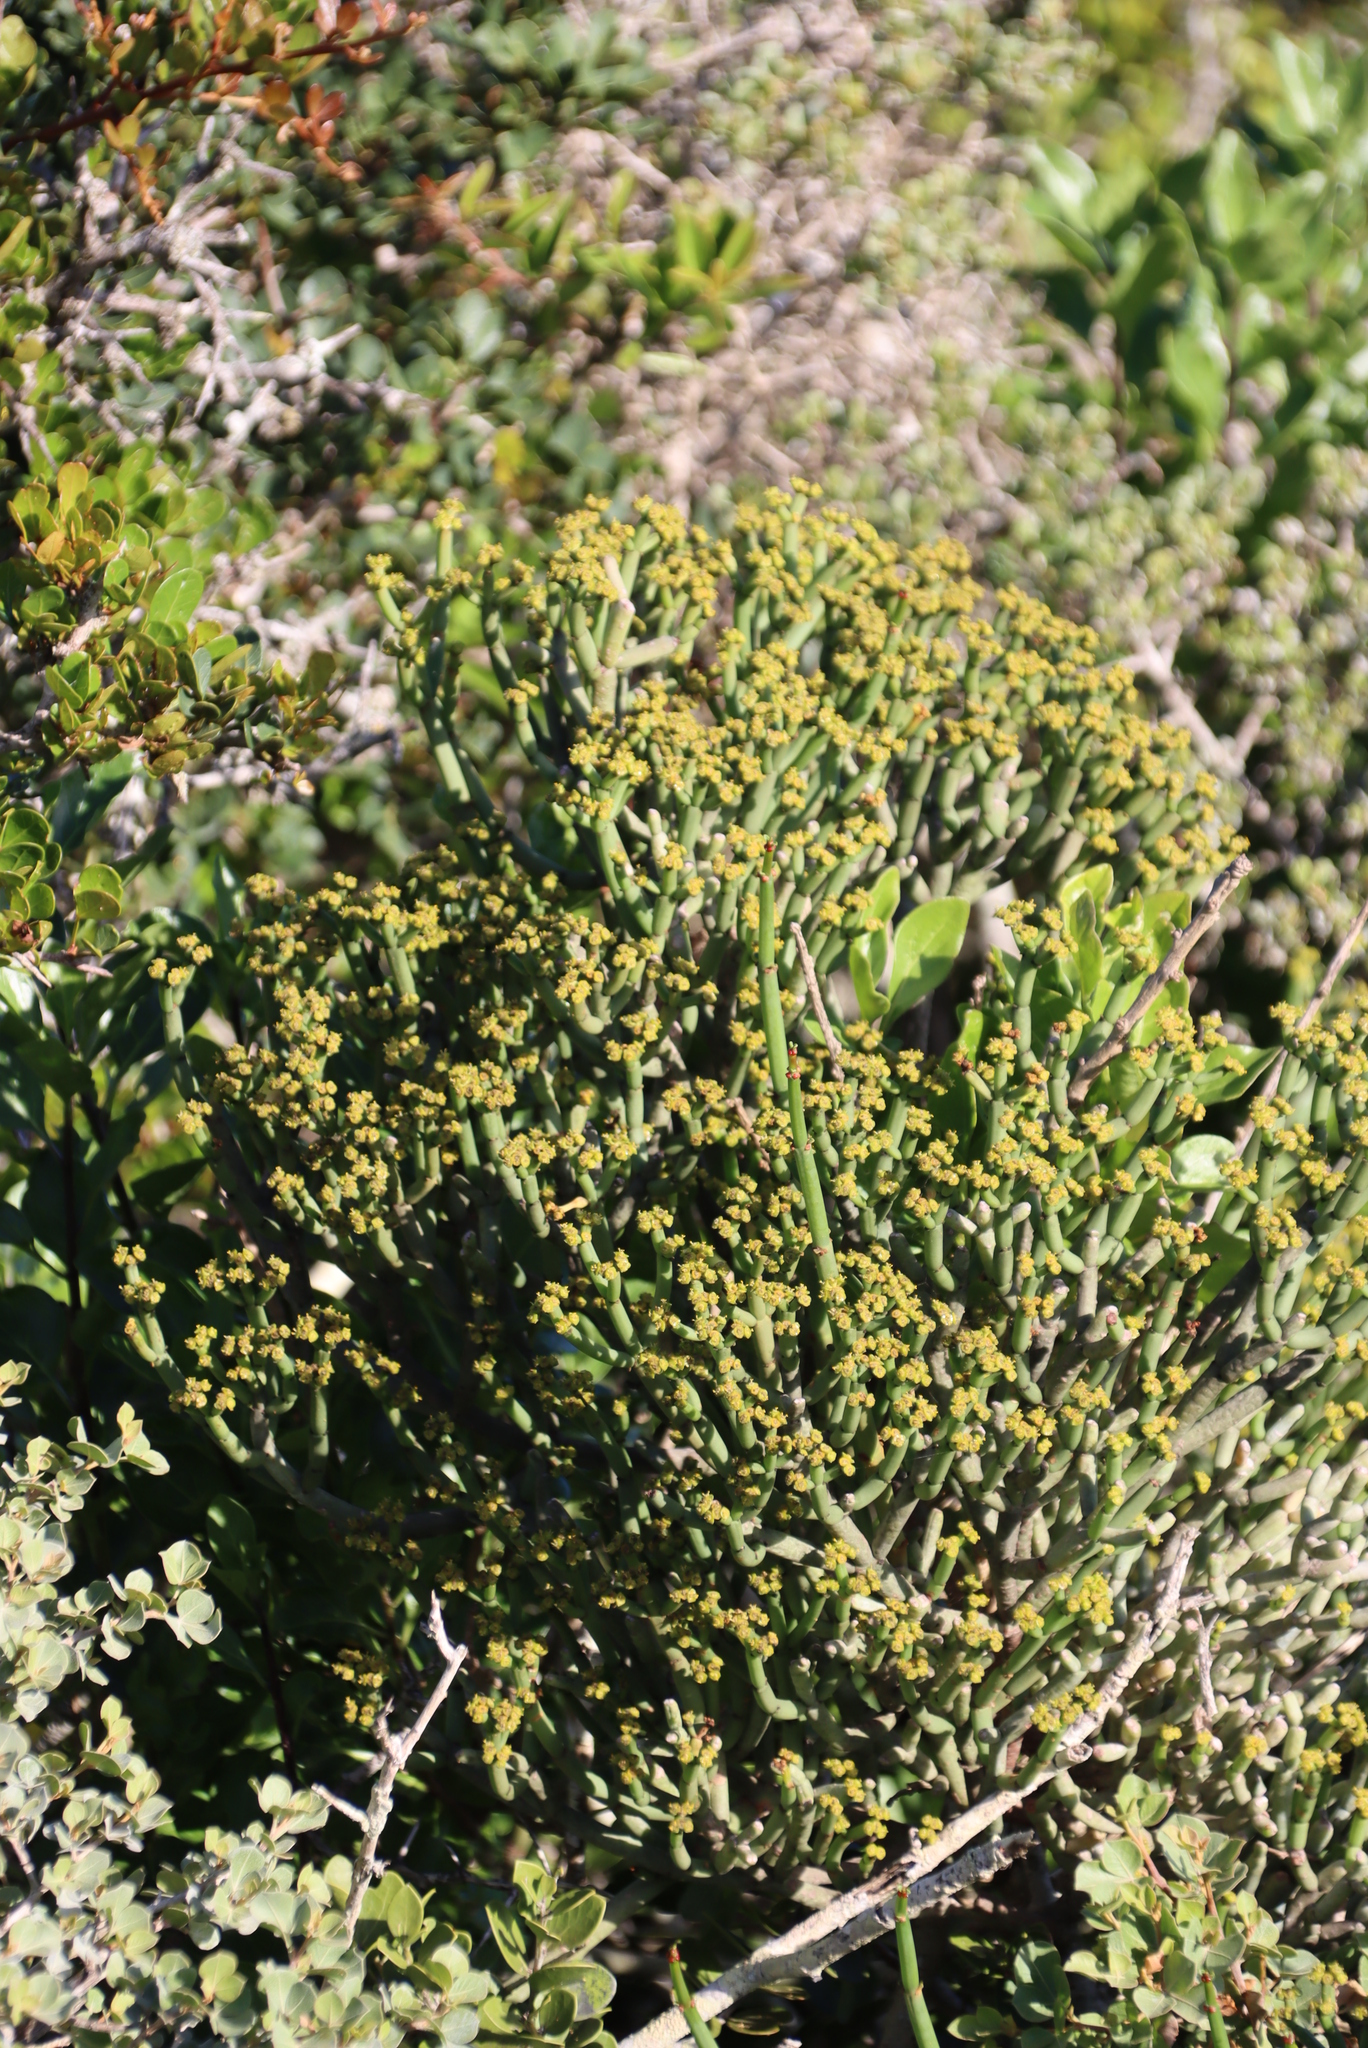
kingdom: Plantae
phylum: Tracheophyta
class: Magnoliopsida
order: Malpighiales
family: Euphorbiaceae
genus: Euphorbia
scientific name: Euphorbia burmanni
